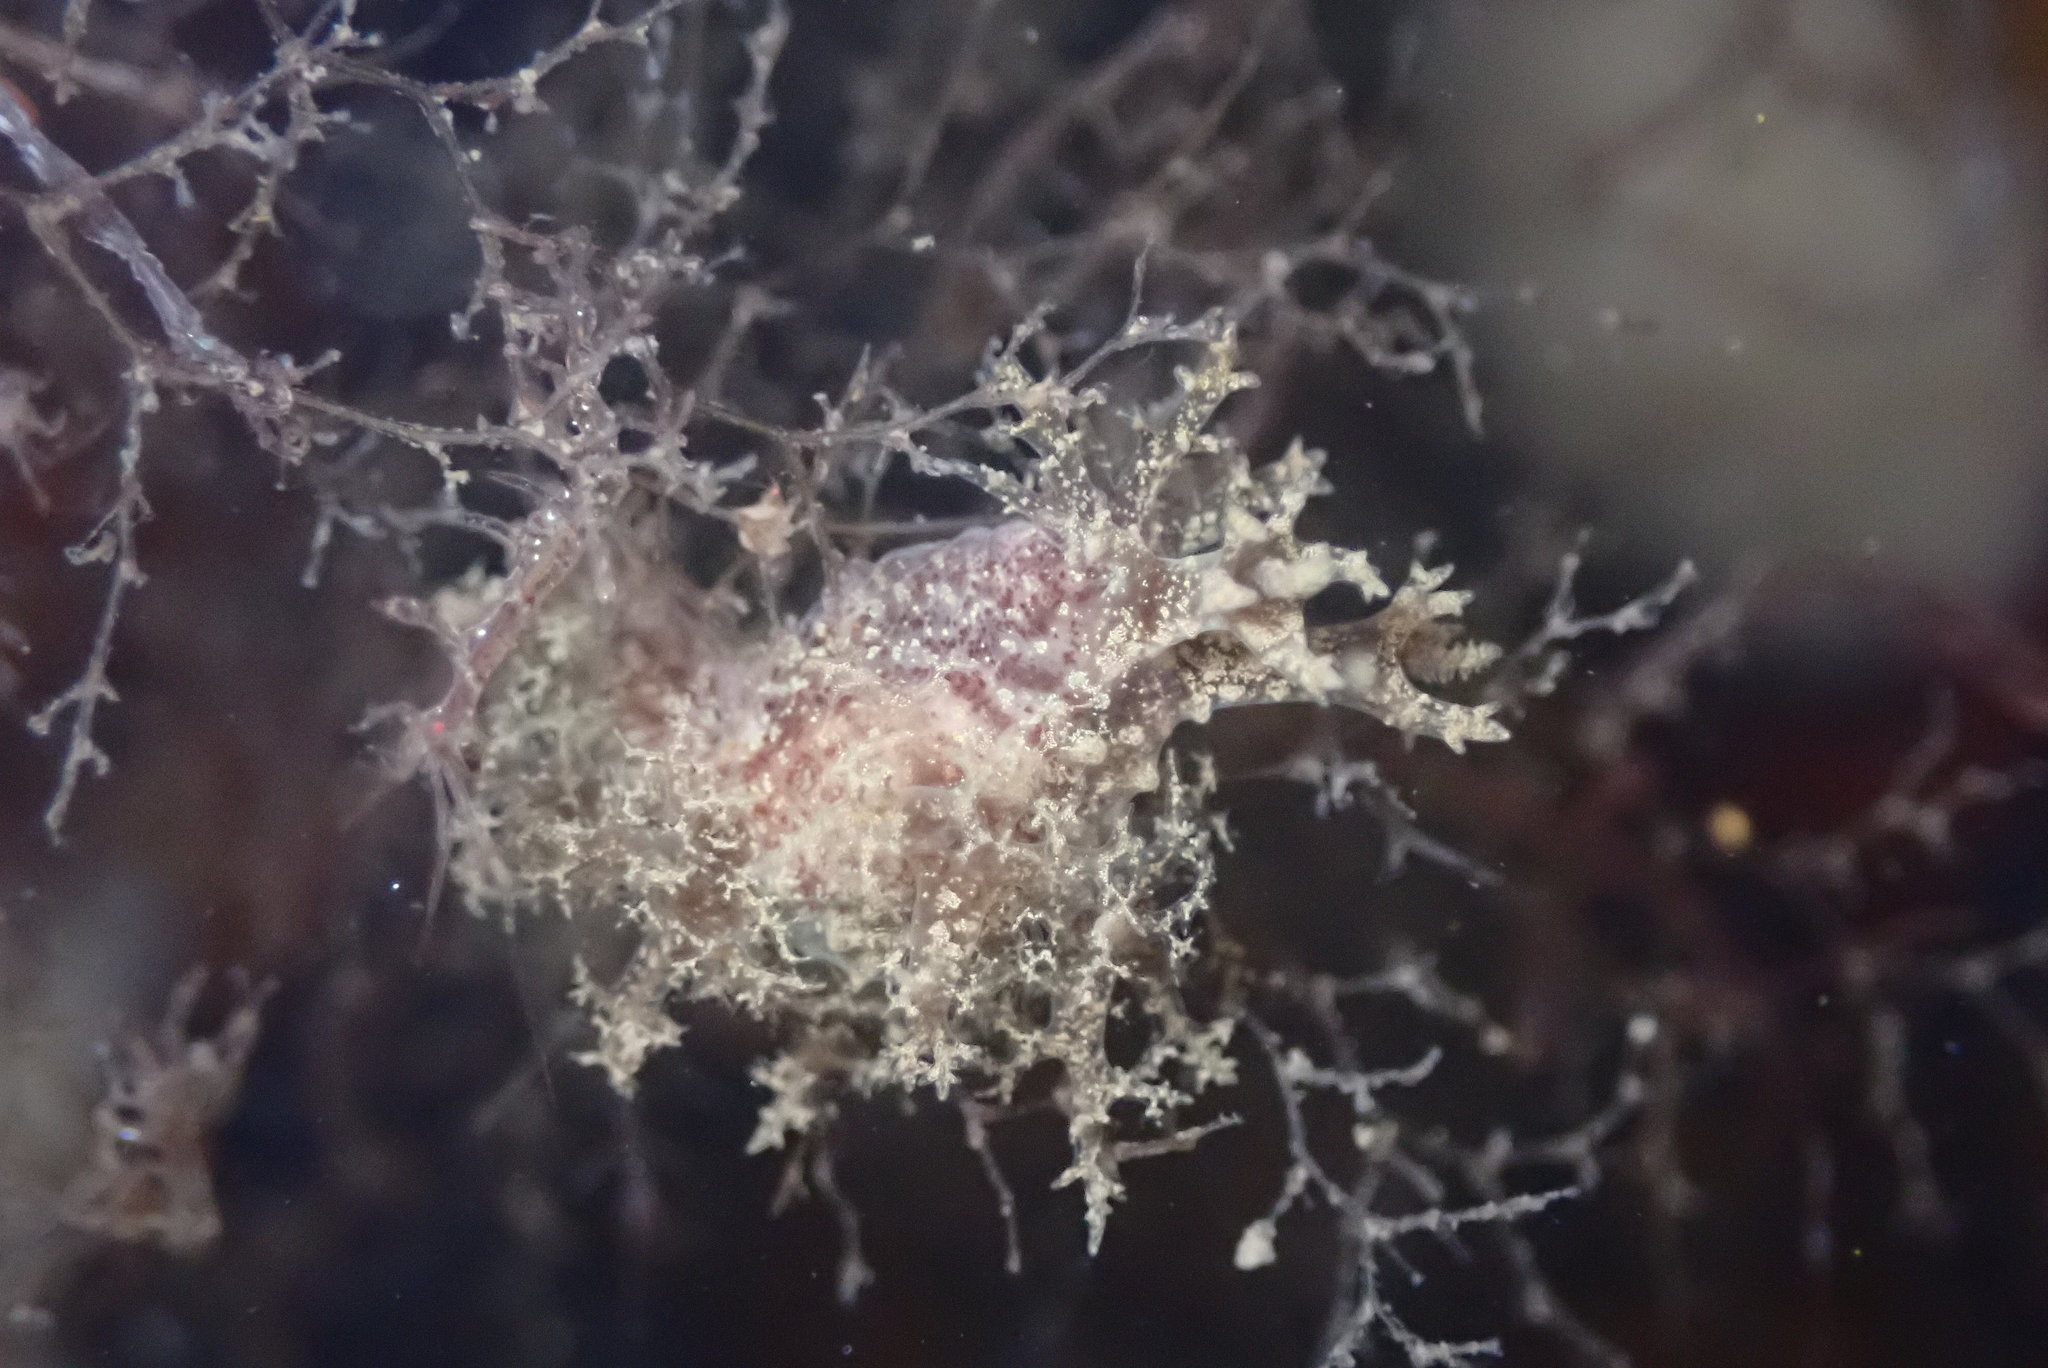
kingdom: Animalia
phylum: Mollusca
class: Gastropoda
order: Nudibranchia
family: Dendronotidae
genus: Dendronotus
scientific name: Dendronotus venustus
